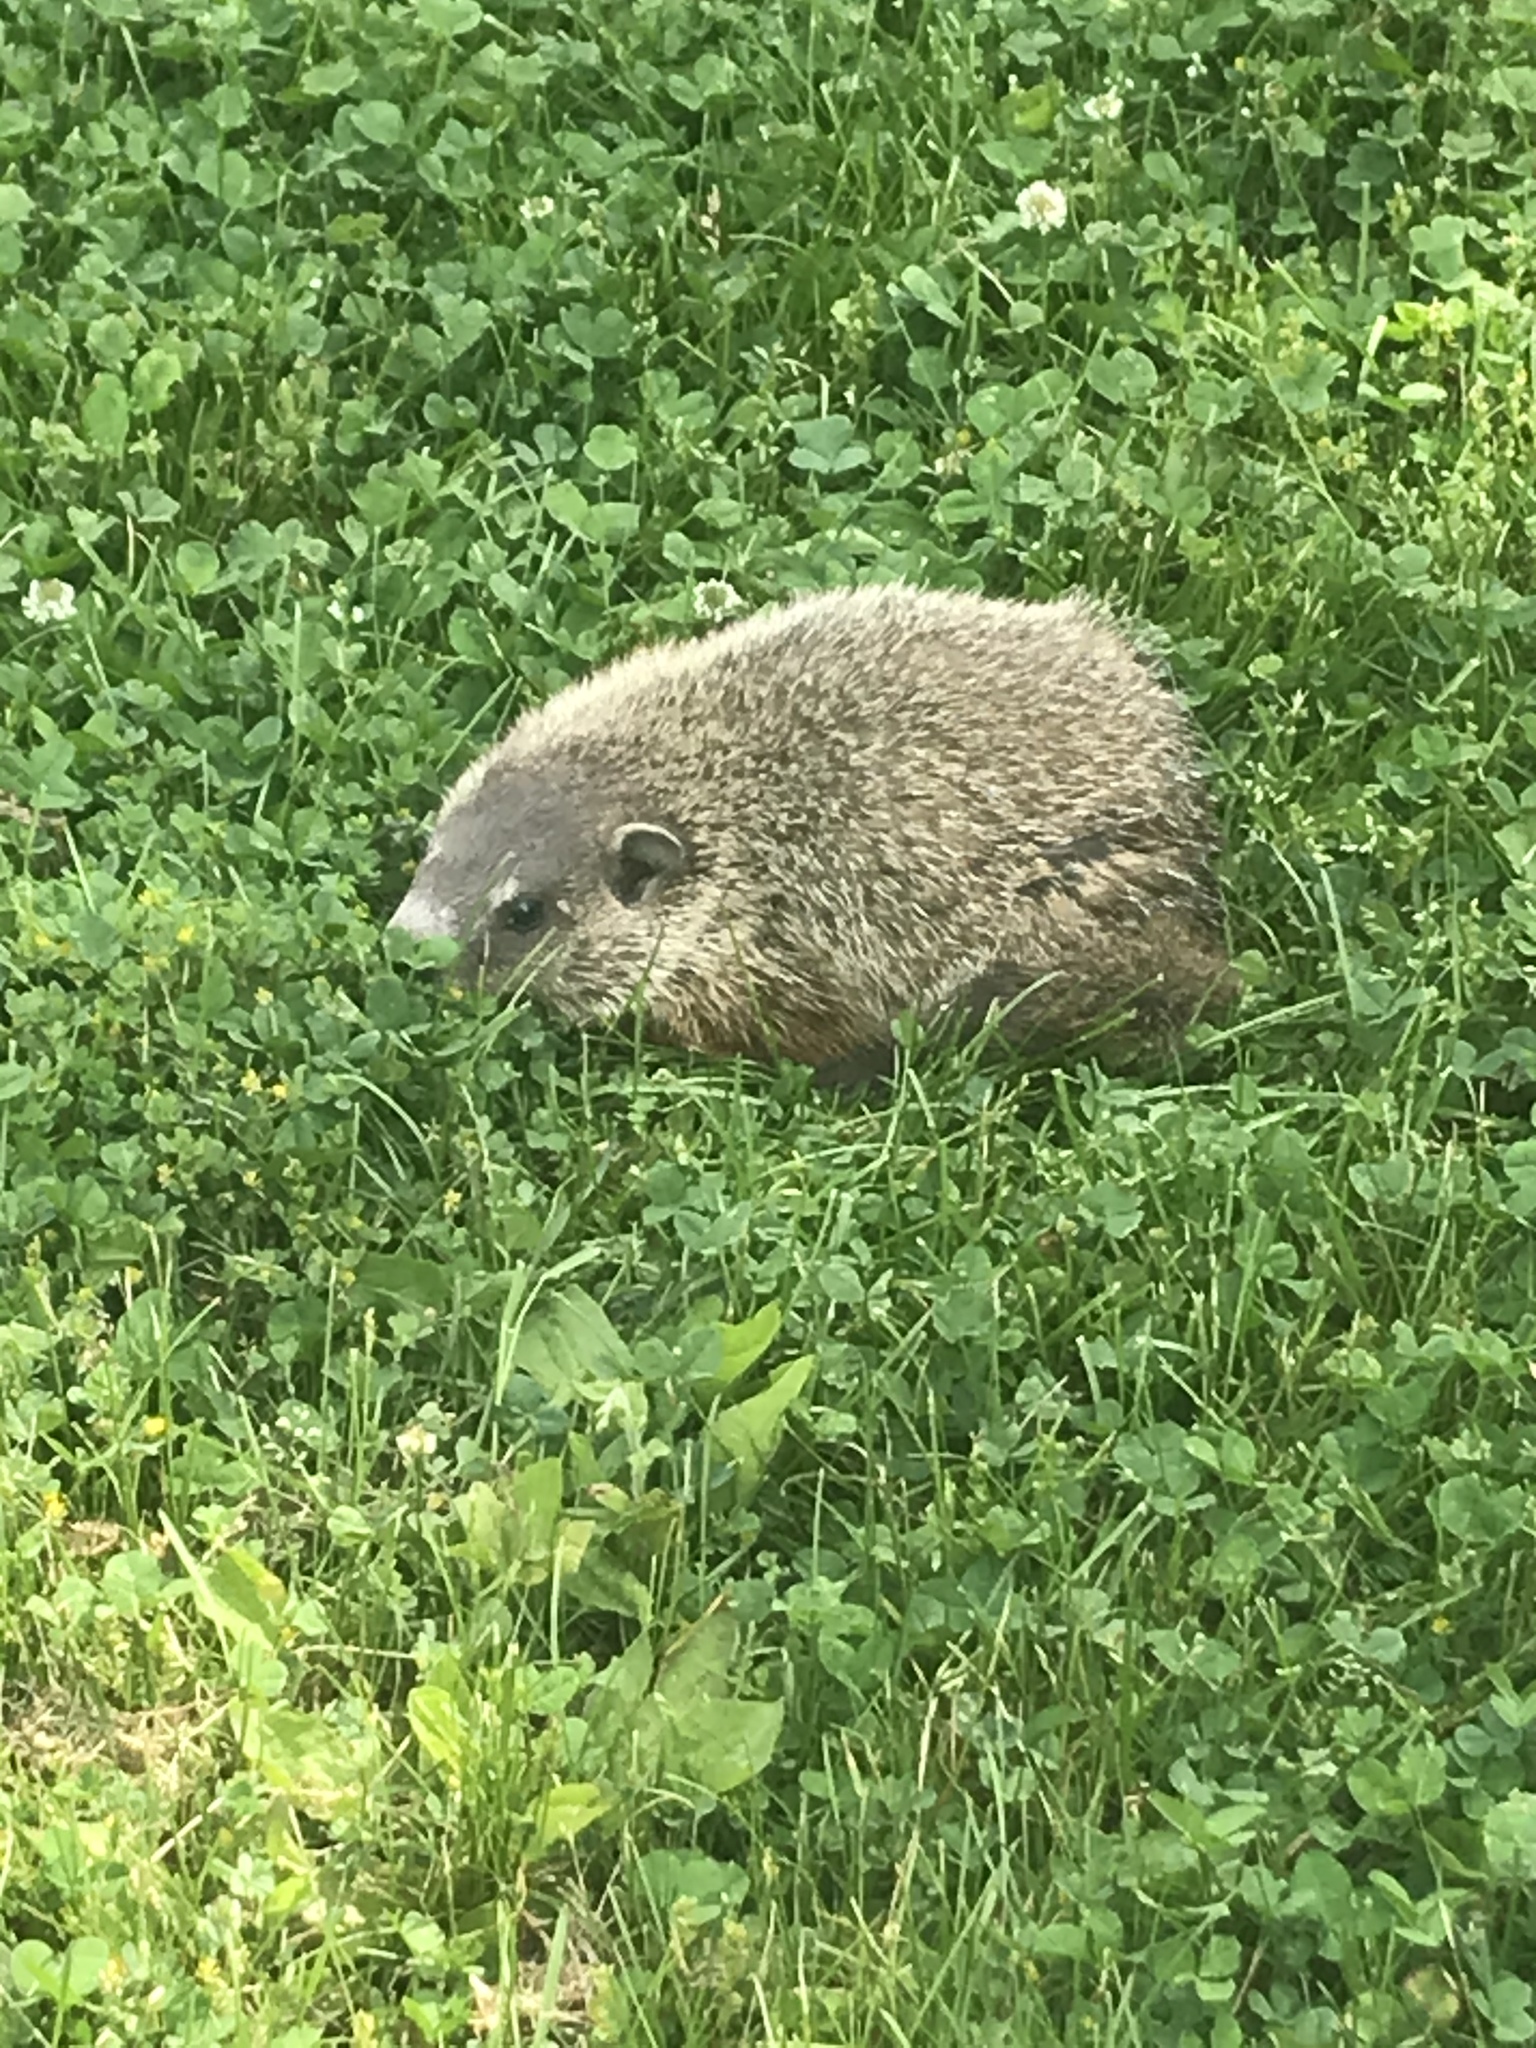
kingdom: Animalia
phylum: Chordata
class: Mammalia
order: Rodentia
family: Sciuridae
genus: Marmota
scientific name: Marmota monax
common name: Groundhog
